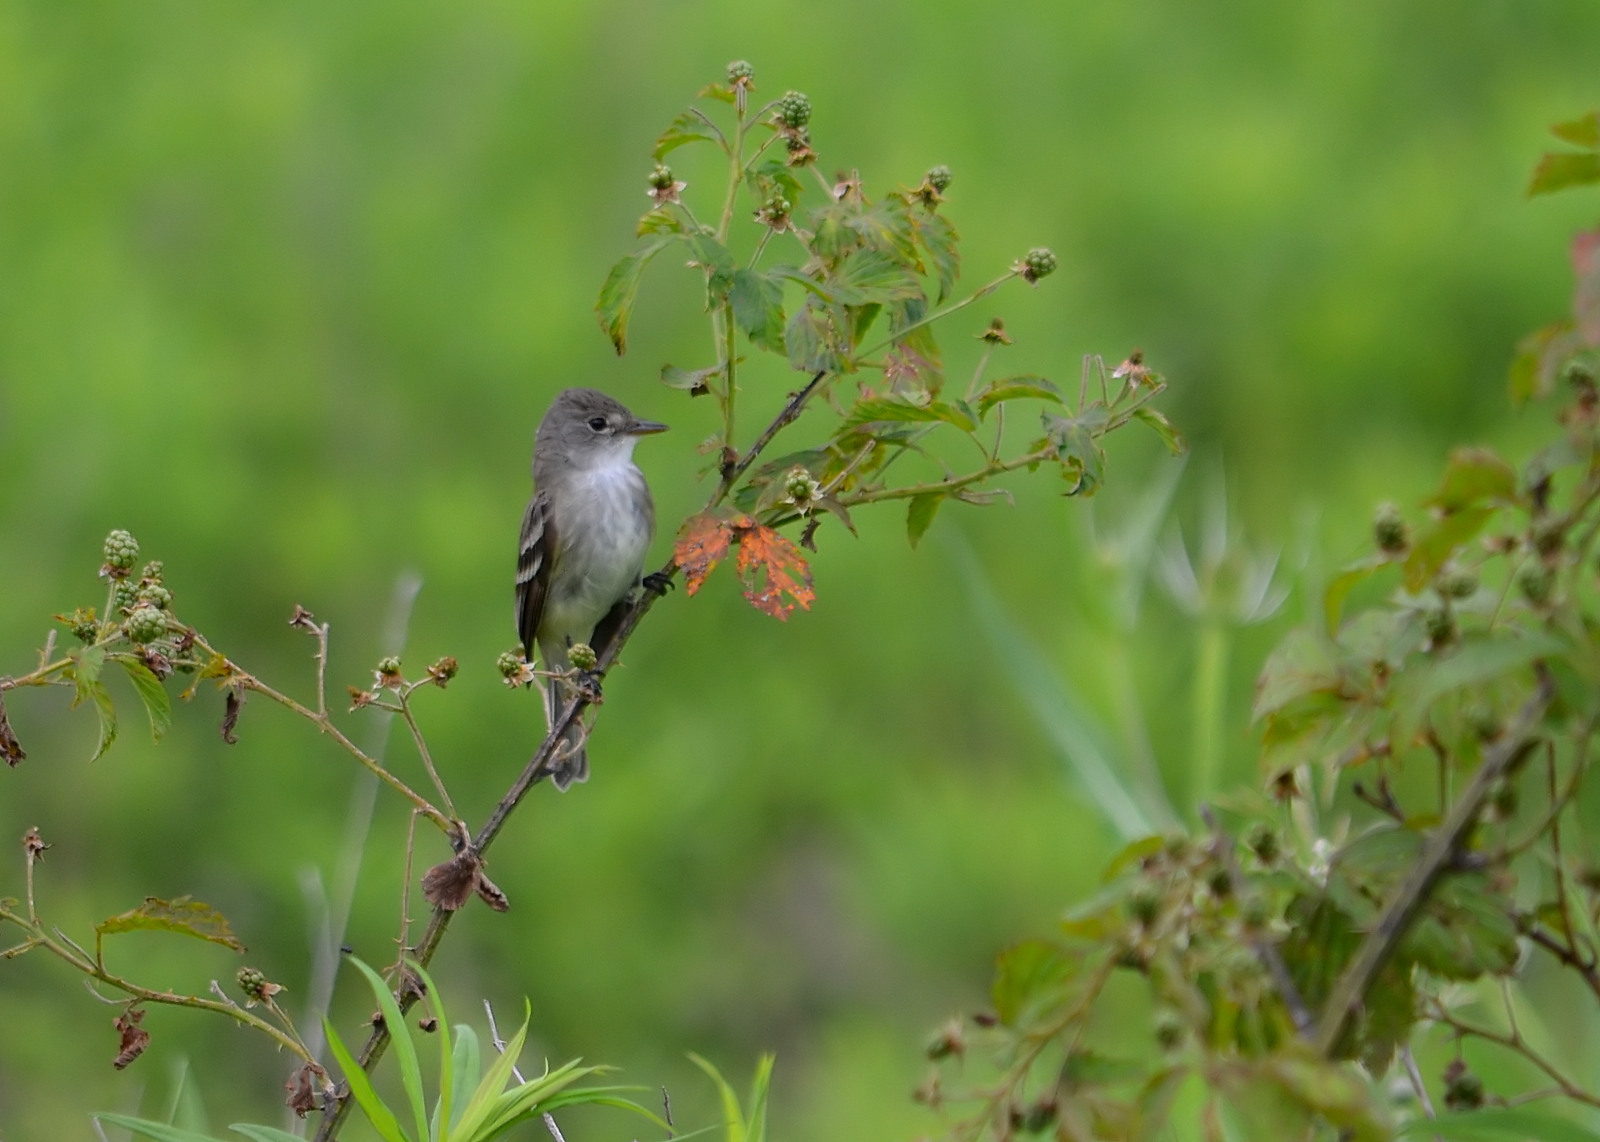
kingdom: Animalia
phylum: Chordata
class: Aves
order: Passeriformes
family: Tyrannidae
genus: Empidonax
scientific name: Empidonax
